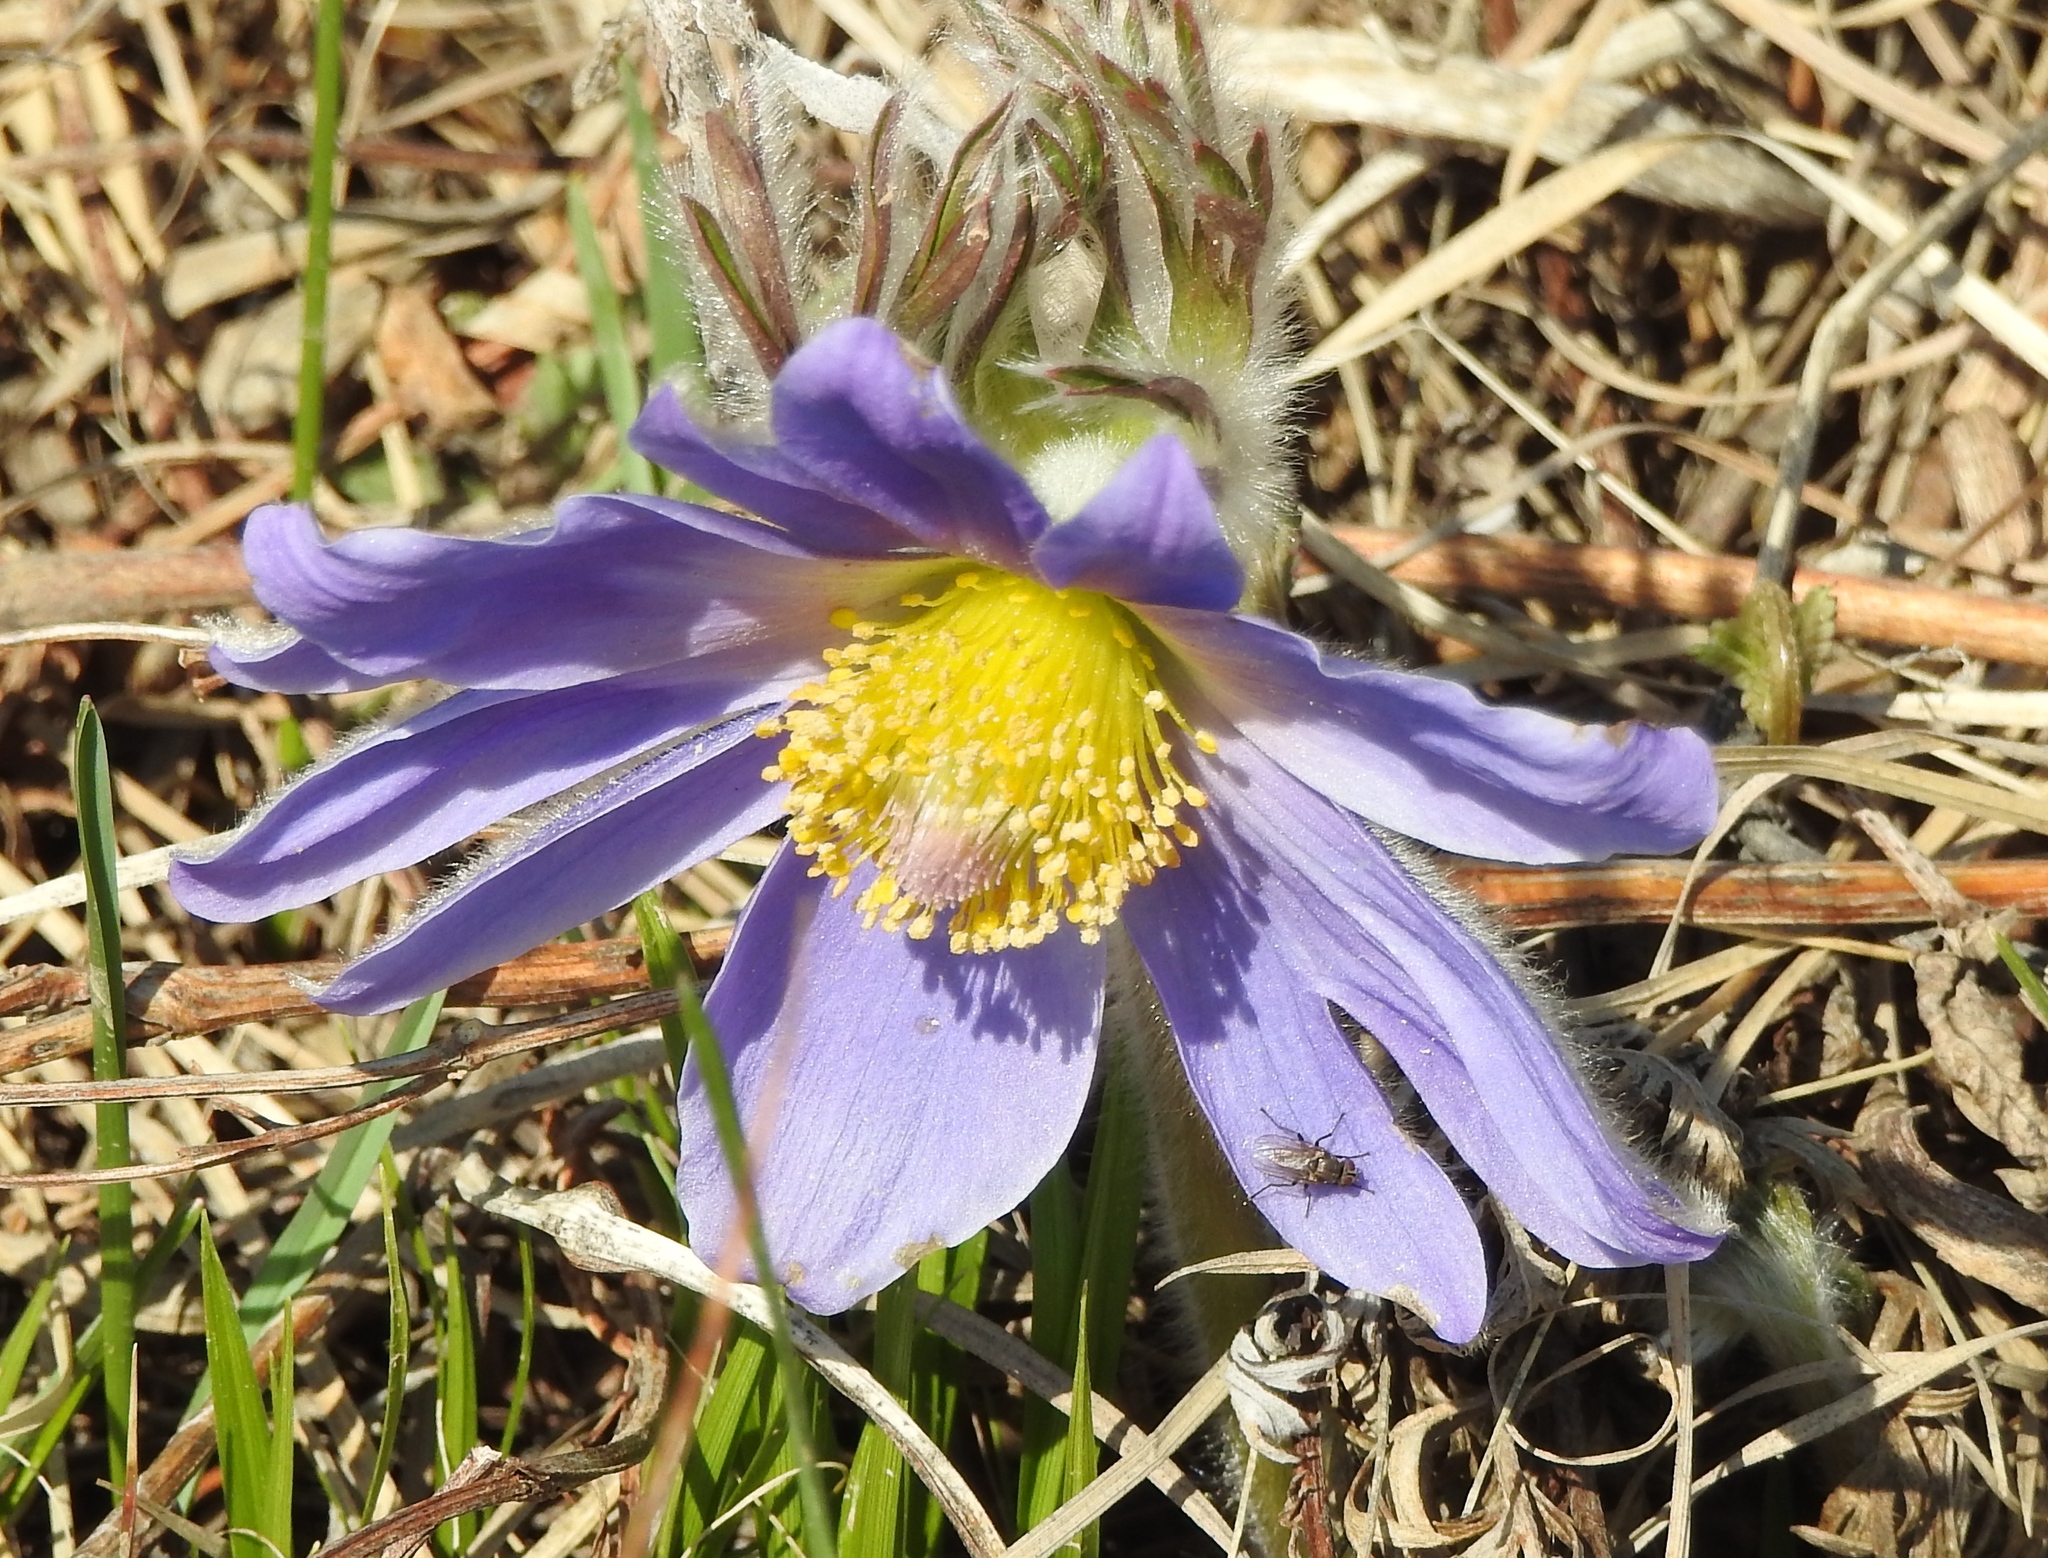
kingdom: Plantae
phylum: Tracheophyta
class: Magnoliopsida
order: Ranunculales
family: Ranunculaceae
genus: Pulsatilla
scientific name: Pulsatilla patens
